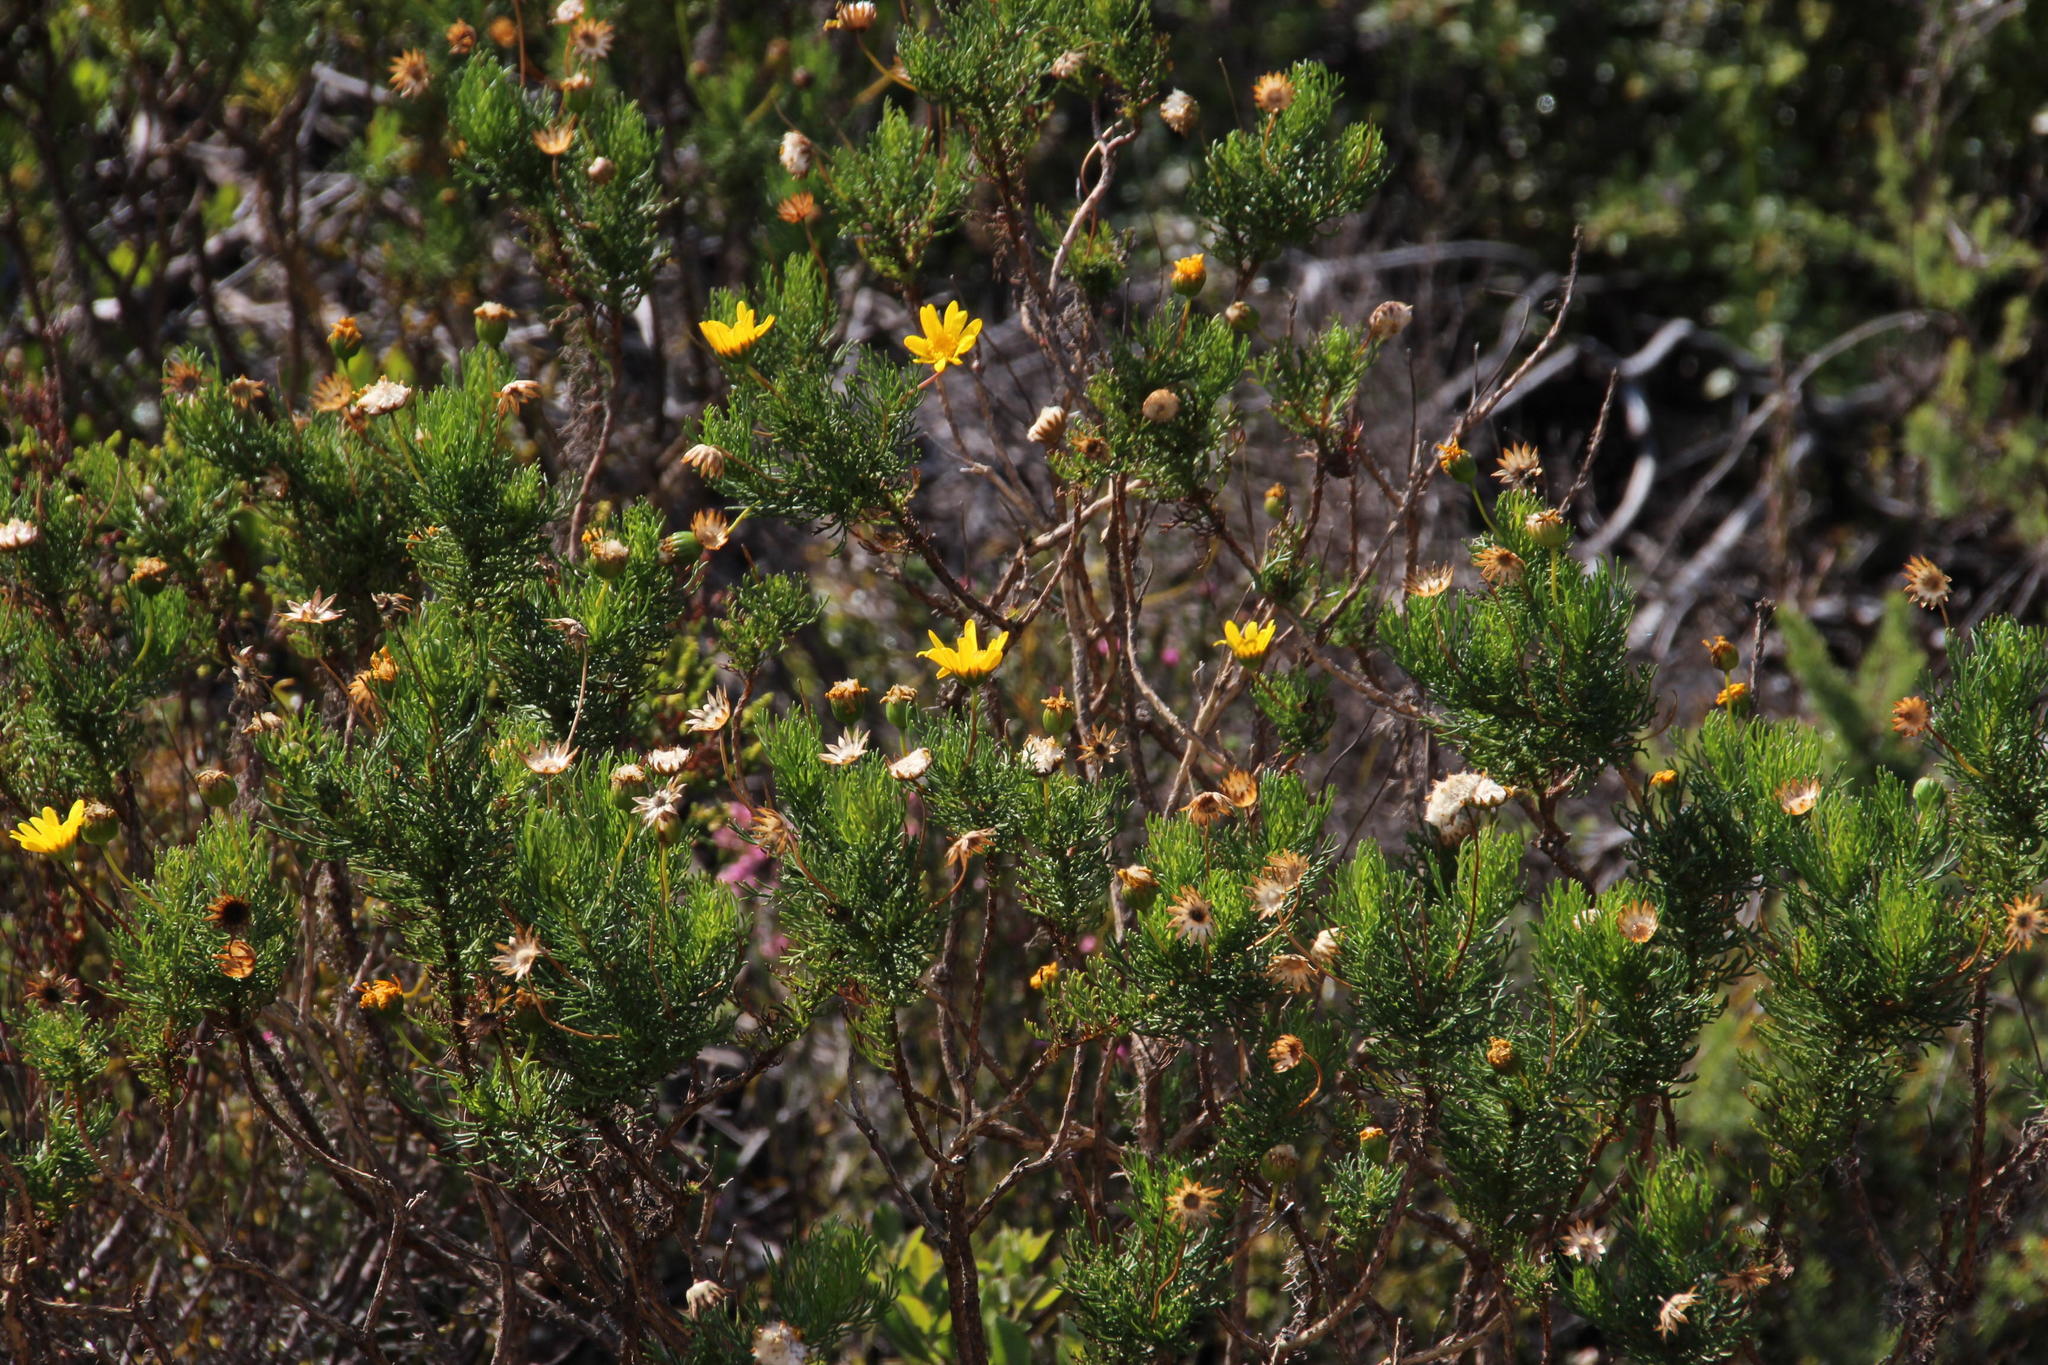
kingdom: Plantae
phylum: Tracheophyta
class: Magnoliopsida
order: Asterales
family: Asteraceae
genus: Euryops
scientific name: Euryops abrotanifolius
